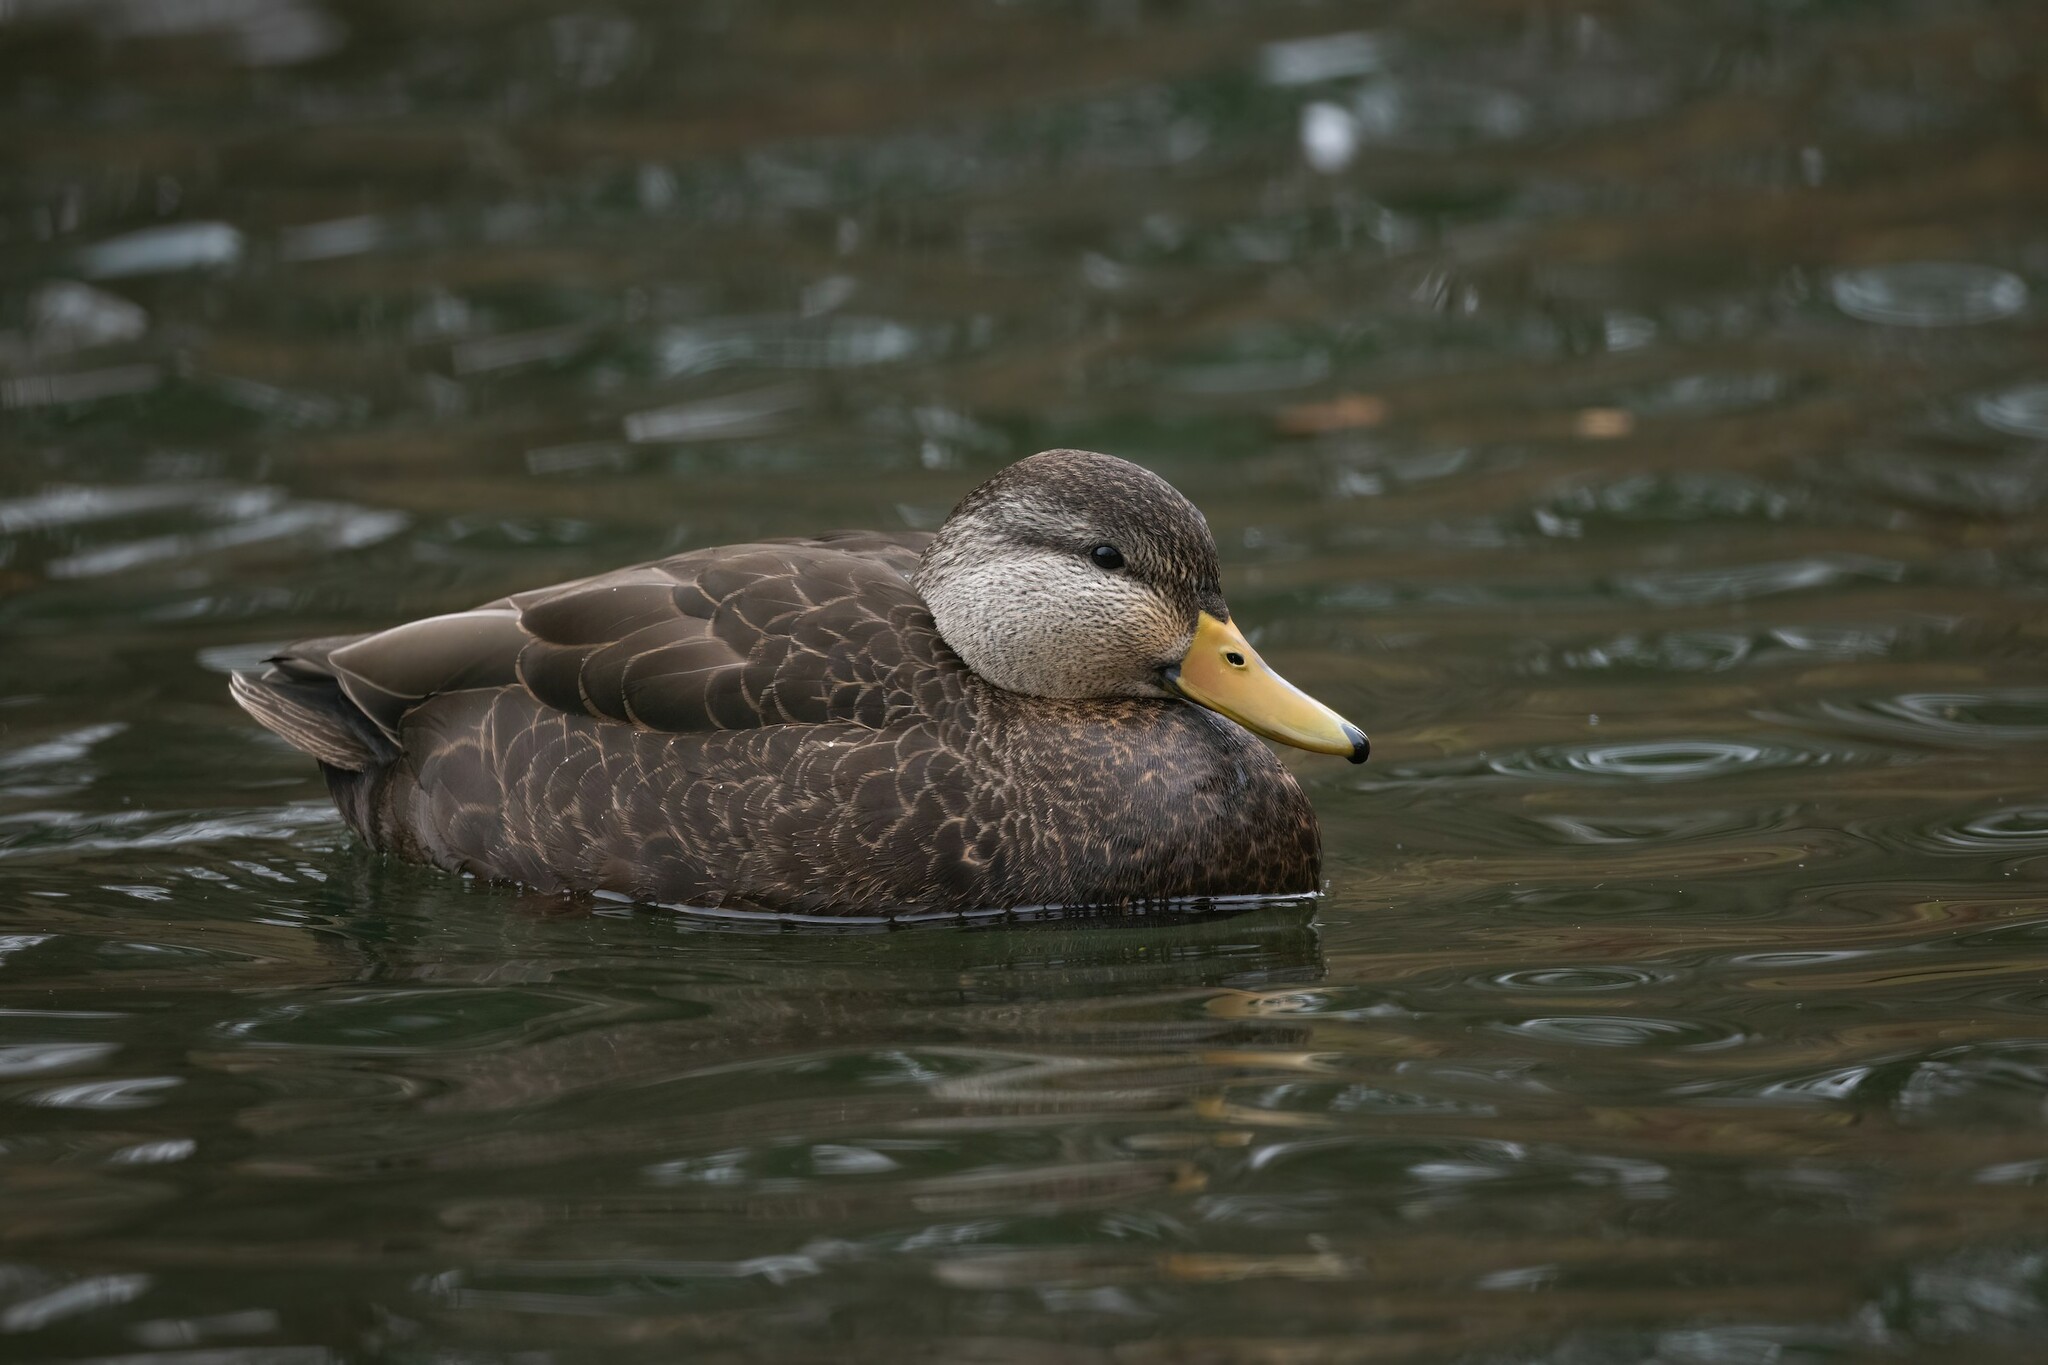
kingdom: Animalia
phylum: Chordata
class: Aves
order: Anseriformes
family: Anatidae
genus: Anas
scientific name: Anas rubripes
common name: American black duck
